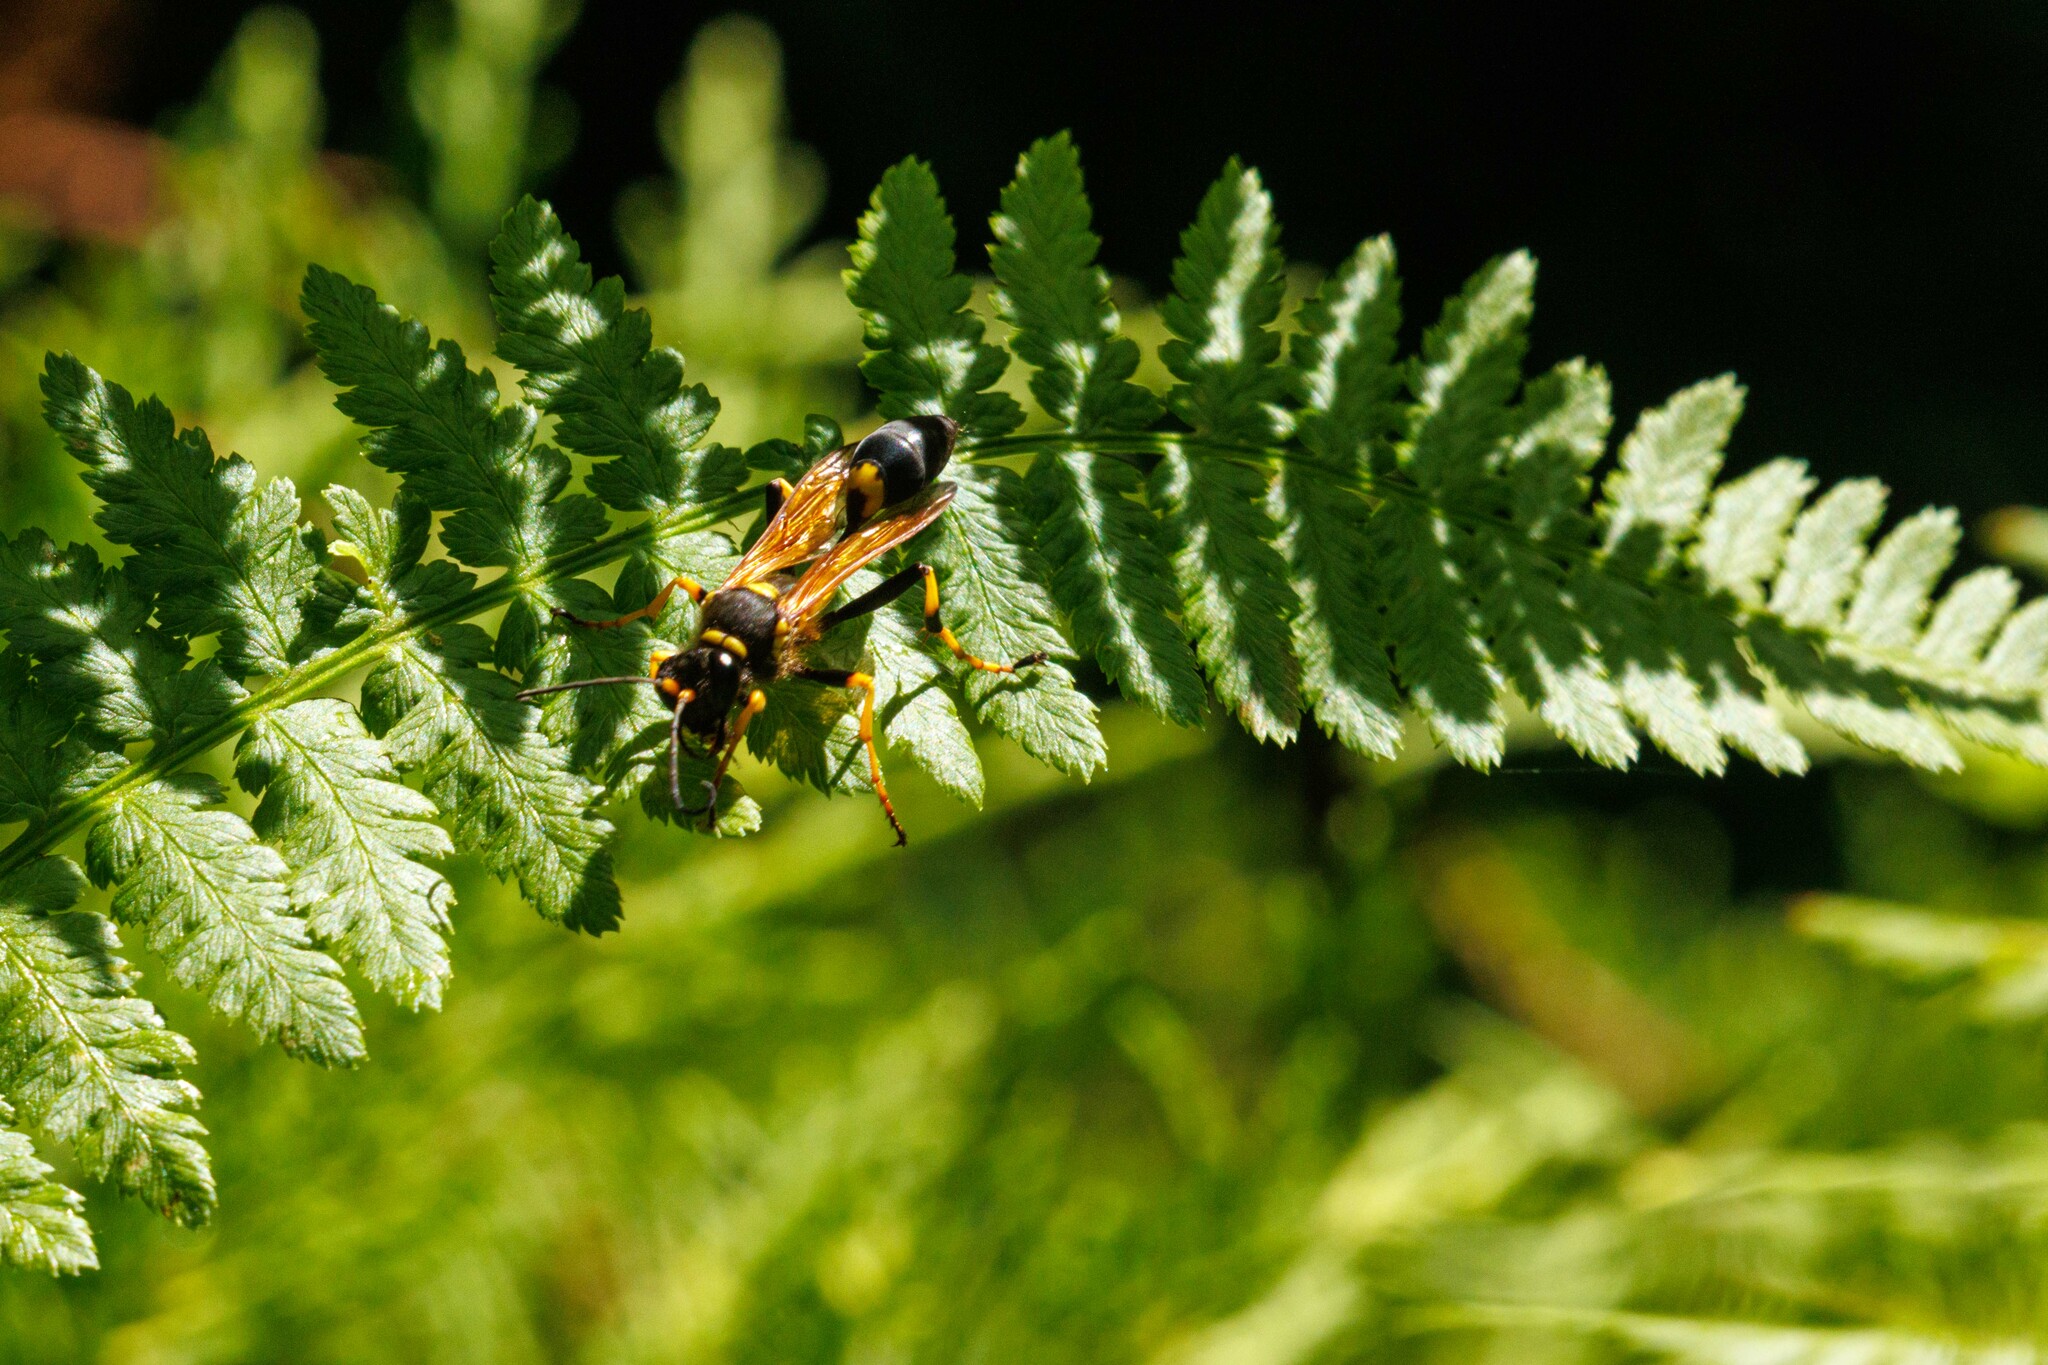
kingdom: Animalia
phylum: Arthropoda
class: Insecta
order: Hymenoptera
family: Sphecidae
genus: Sceliphron
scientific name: Sceliphron caementarium
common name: Mud dauber
